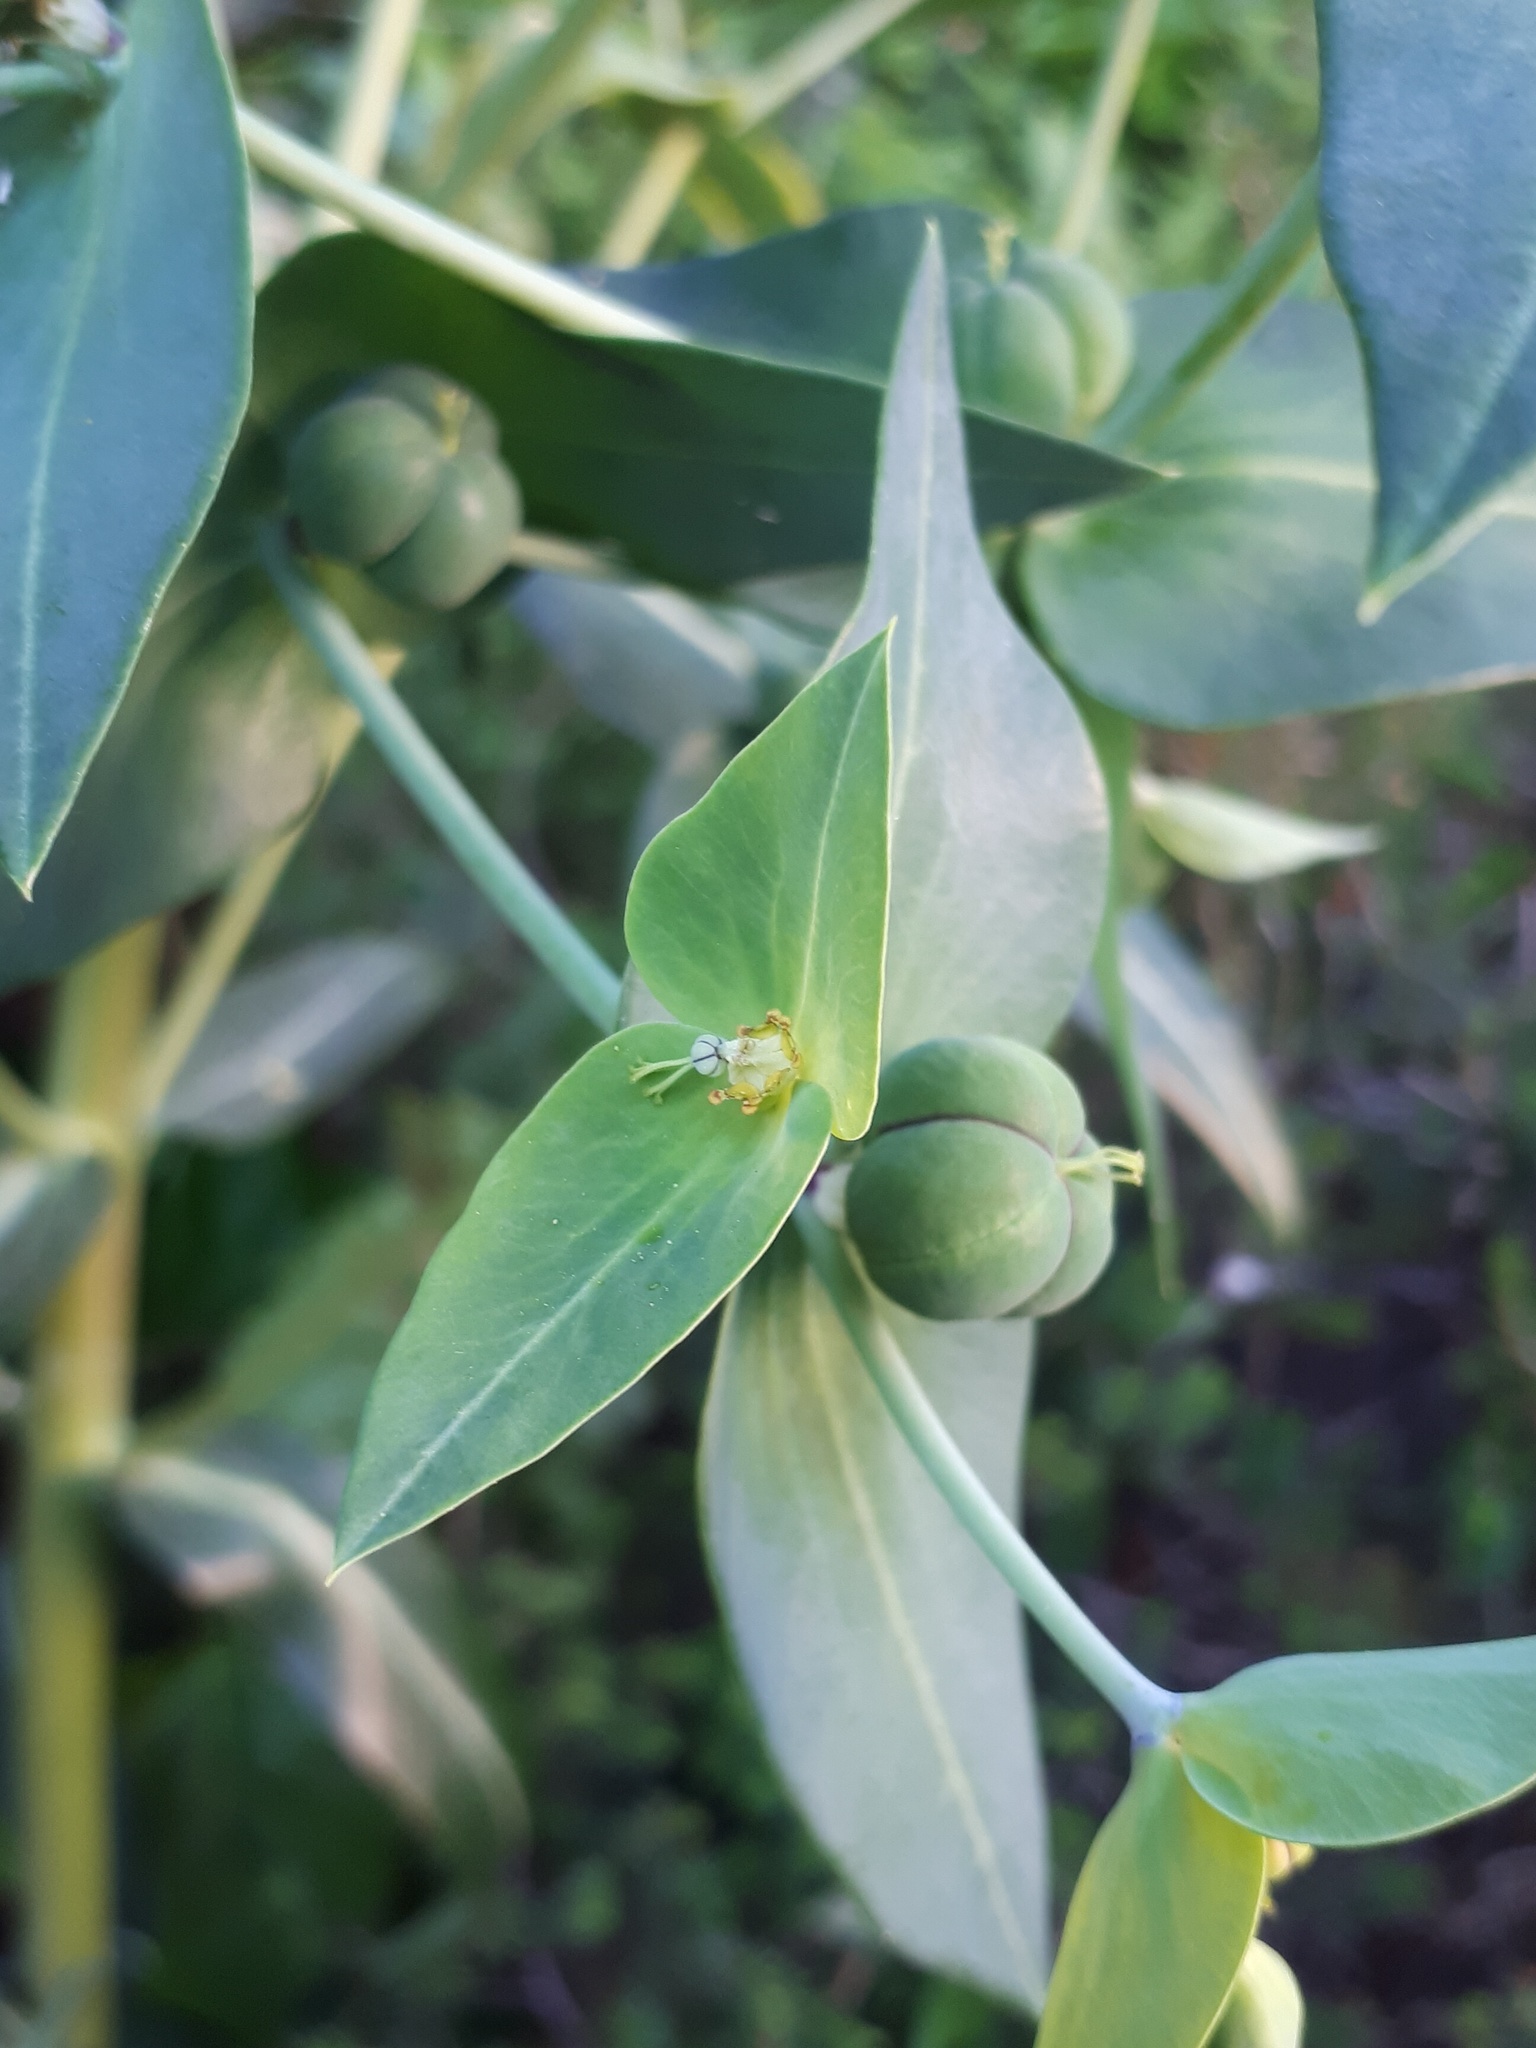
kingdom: Plantae
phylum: Tracheophyta
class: Magnoliopsida
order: Malpighiales
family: Euphorbiaceae
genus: Euphorbia
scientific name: Euphorbia lathyris
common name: Caper spurge
